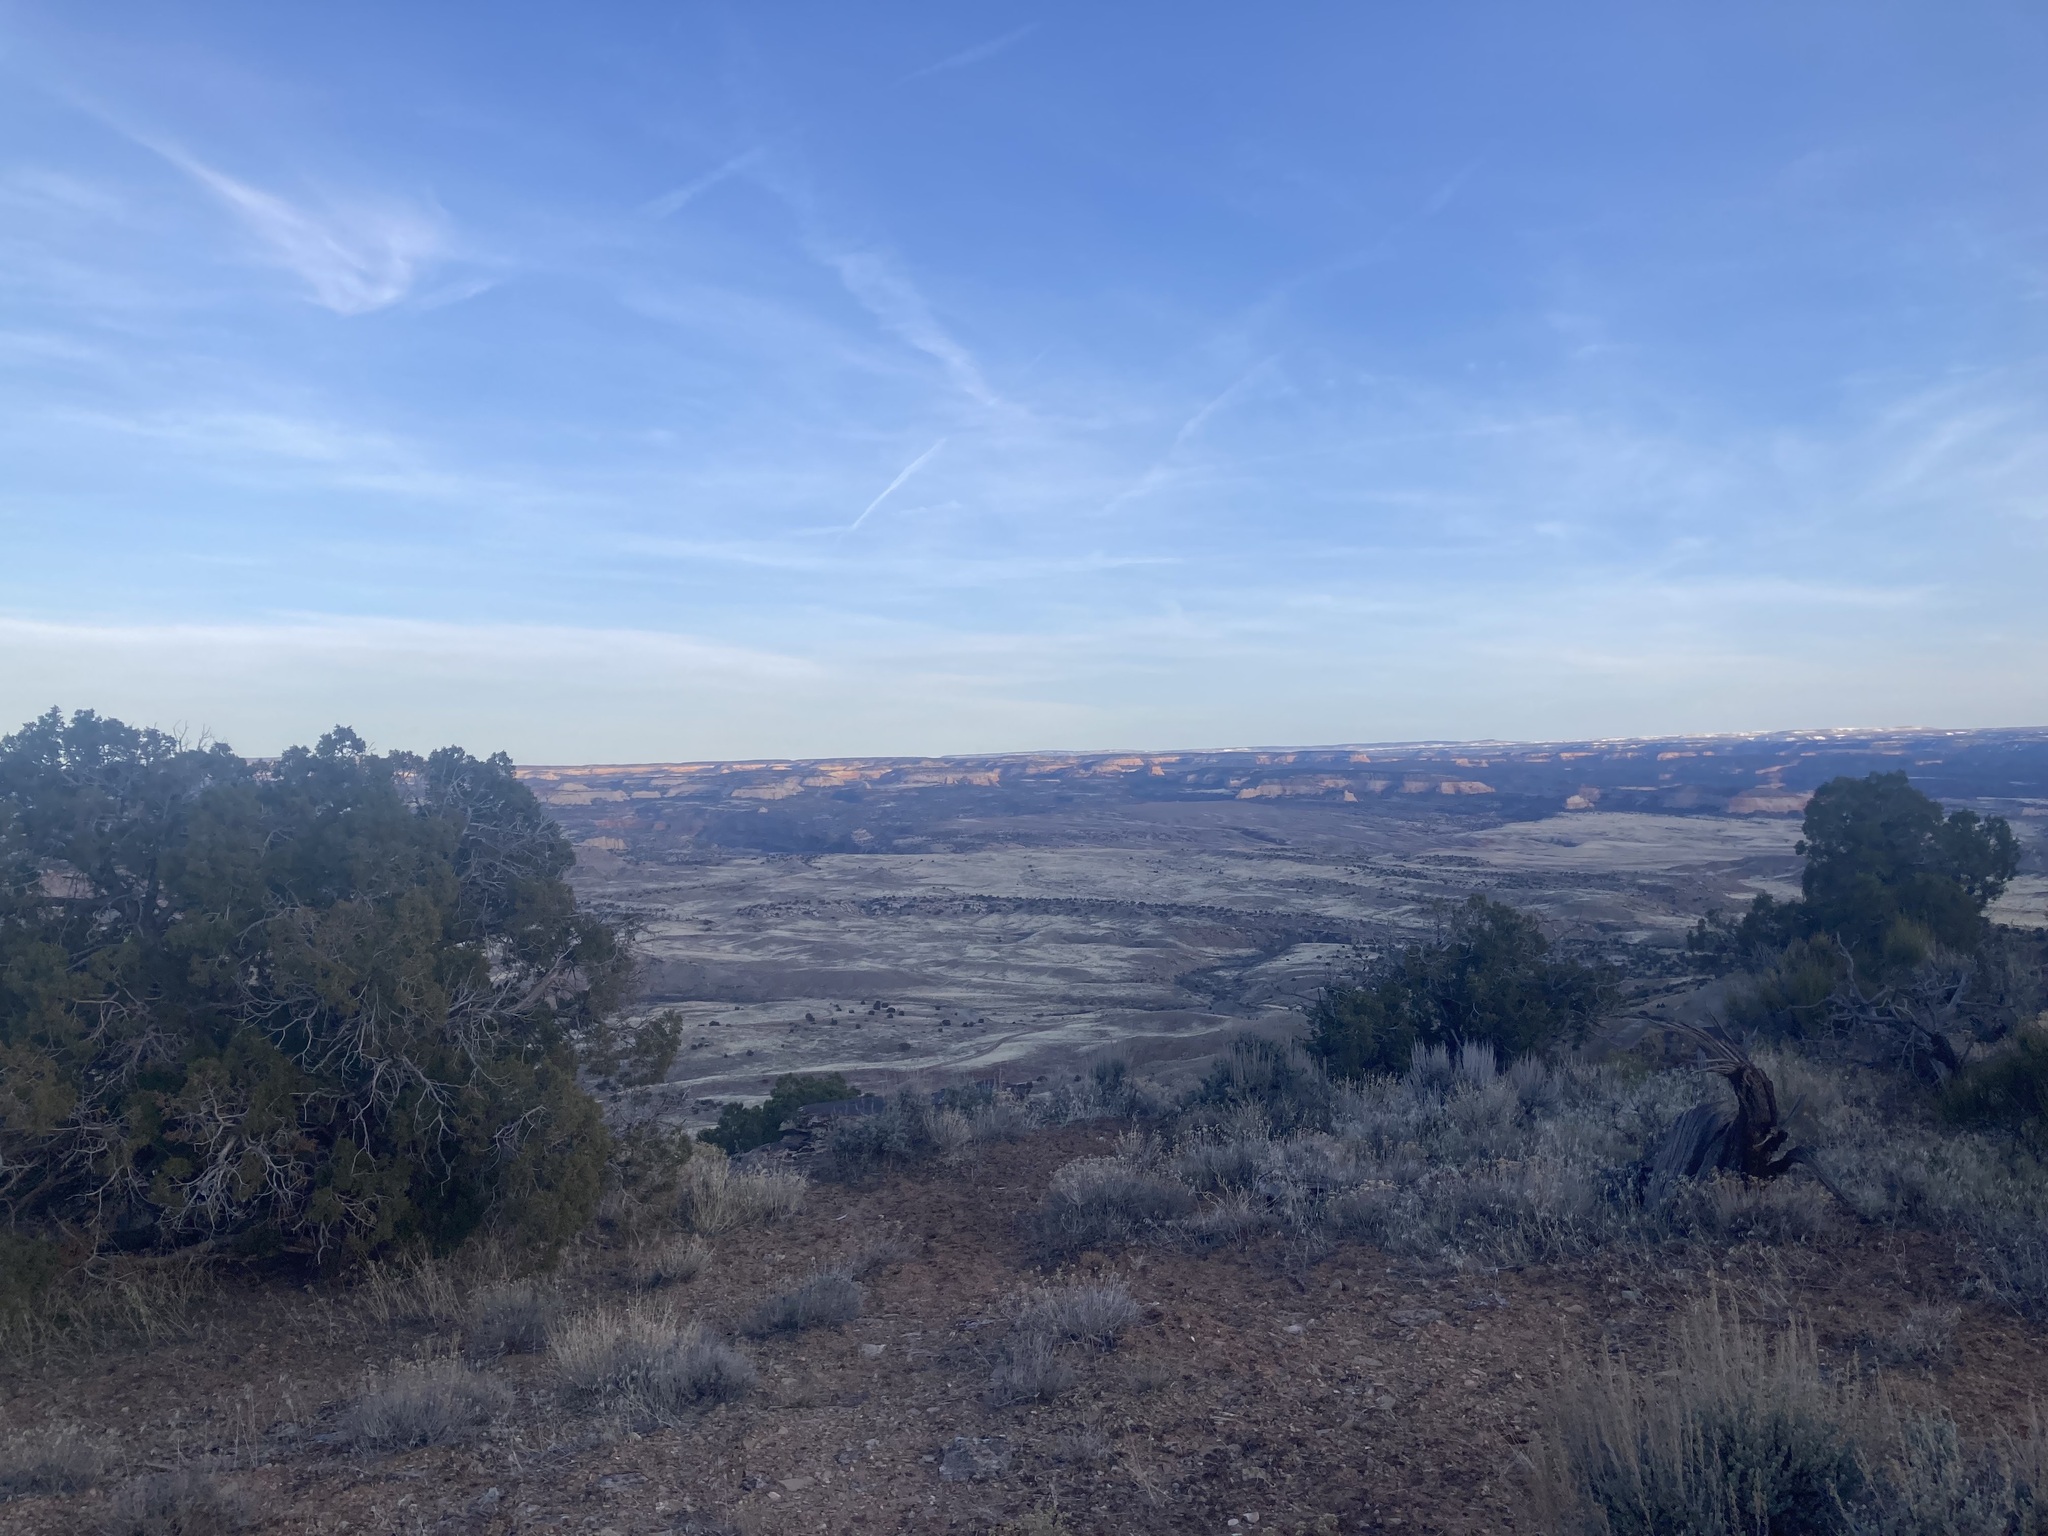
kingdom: Plantae
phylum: Tracheophyta
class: Pinopsida
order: Pinales
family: Cupressaceae
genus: Juniperus
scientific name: Juniperus osteosperma
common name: Utah juniper
